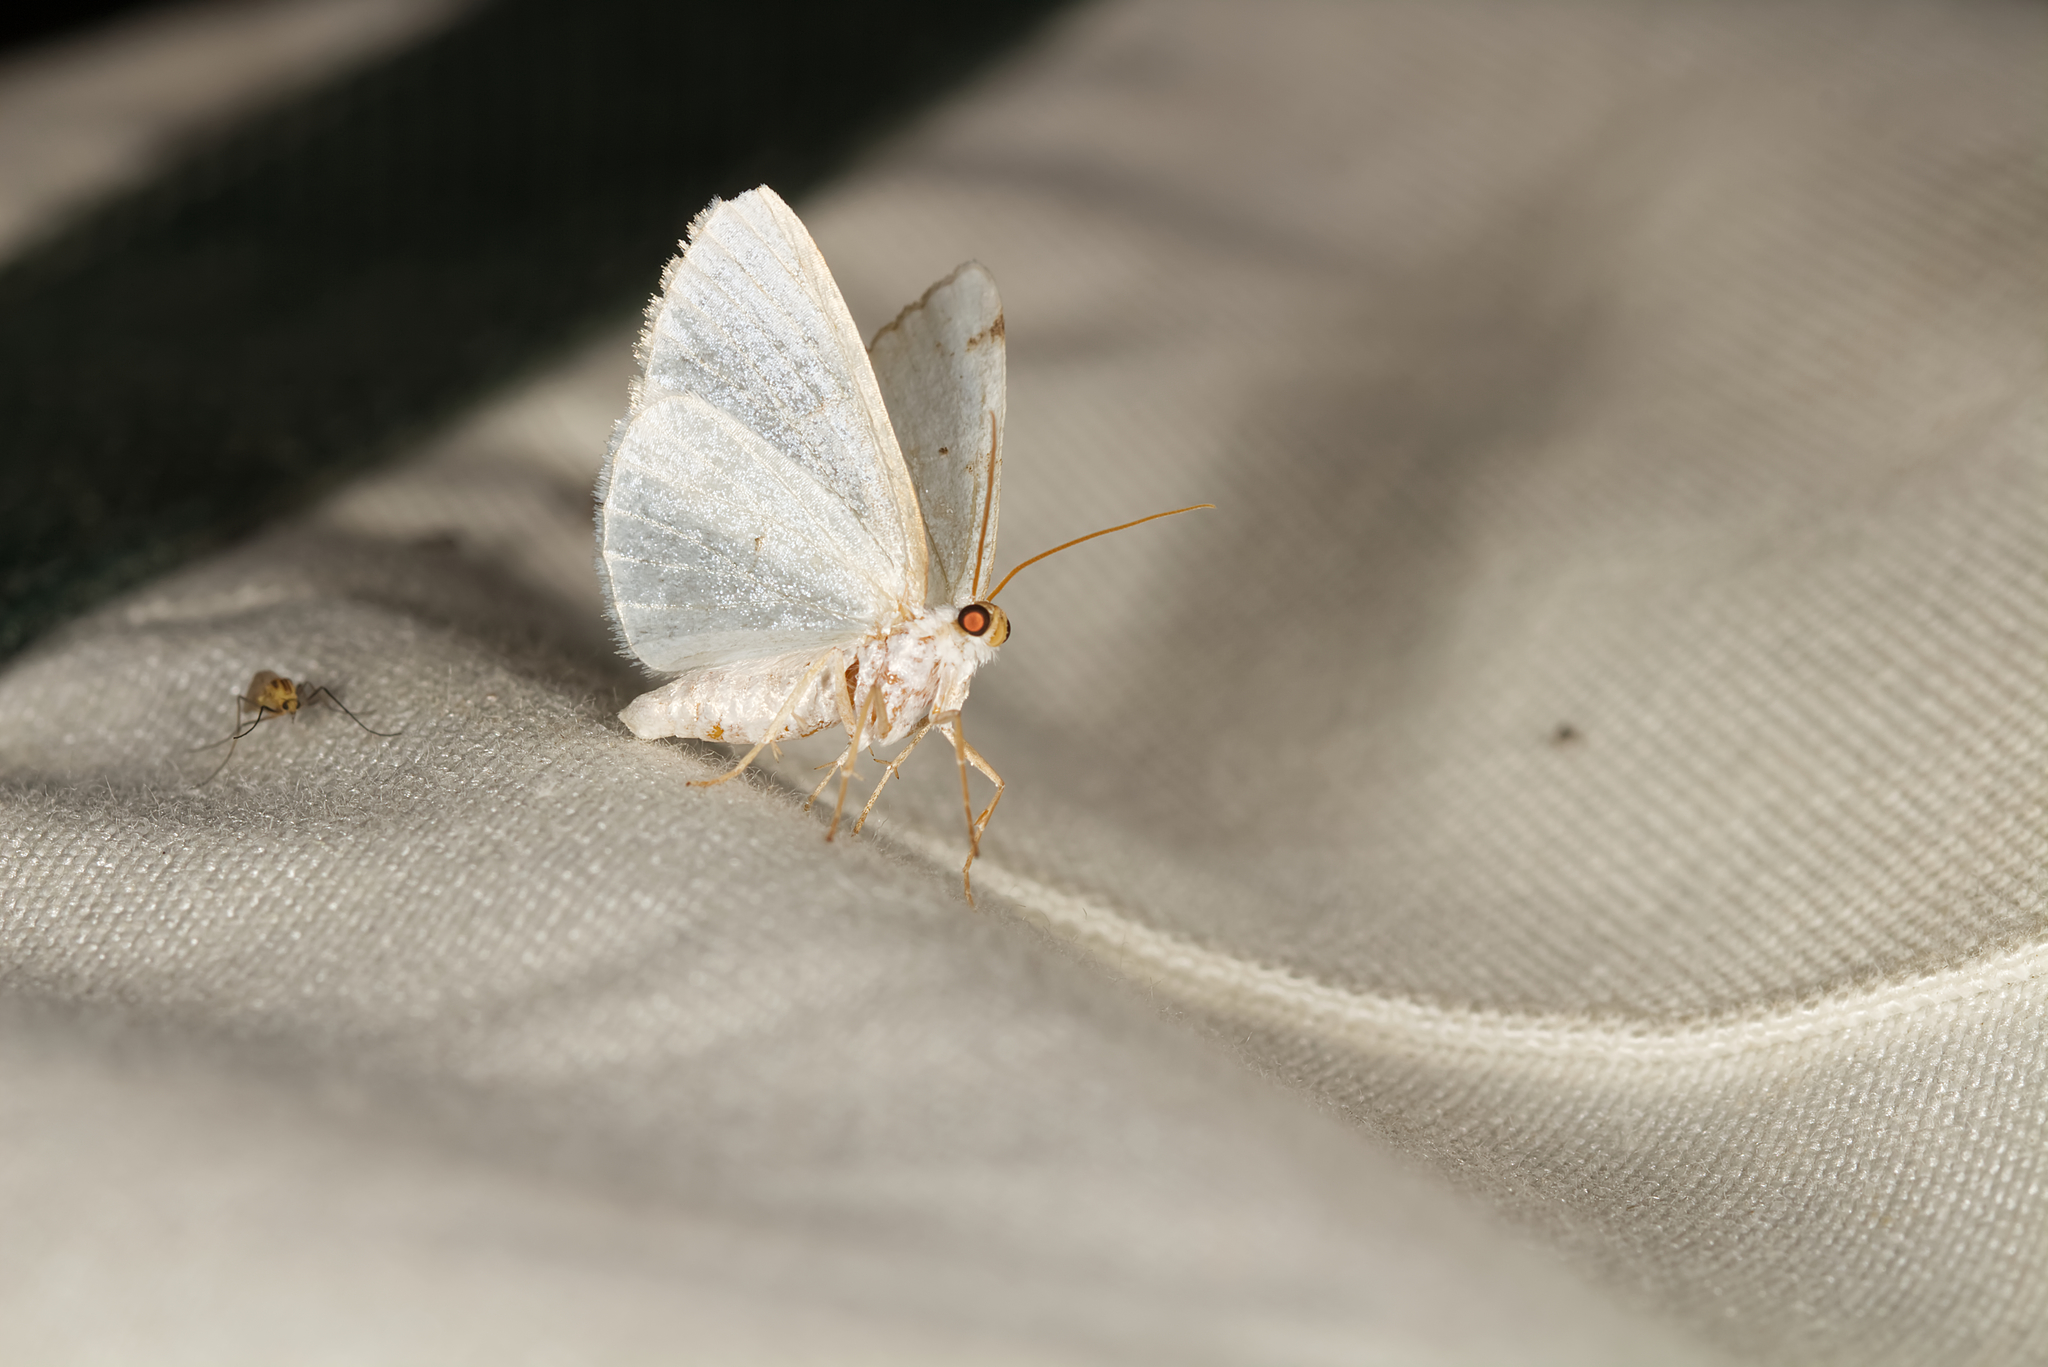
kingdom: Animalia
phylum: Arthropoda
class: Insecta
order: Lepidoptera
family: Geometridae
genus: Lomographa
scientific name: Lomographa bimaculata
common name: White-pinion spotted
